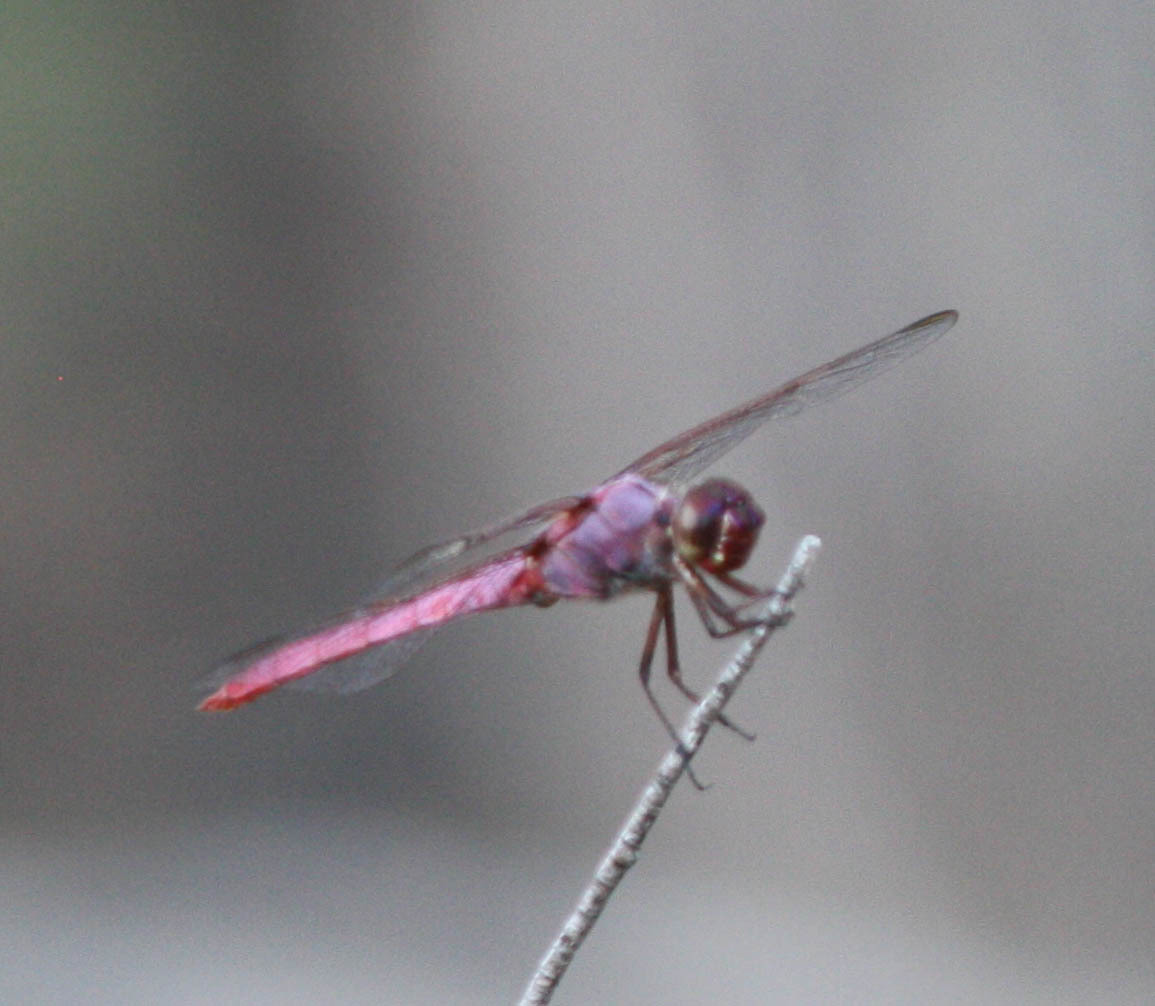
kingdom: Animalia
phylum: Arthropoda
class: Insecta
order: Odonata
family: Libellulidae
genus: Orthemis
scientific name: Orthemis ferruginea
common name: Roseate skimmer
